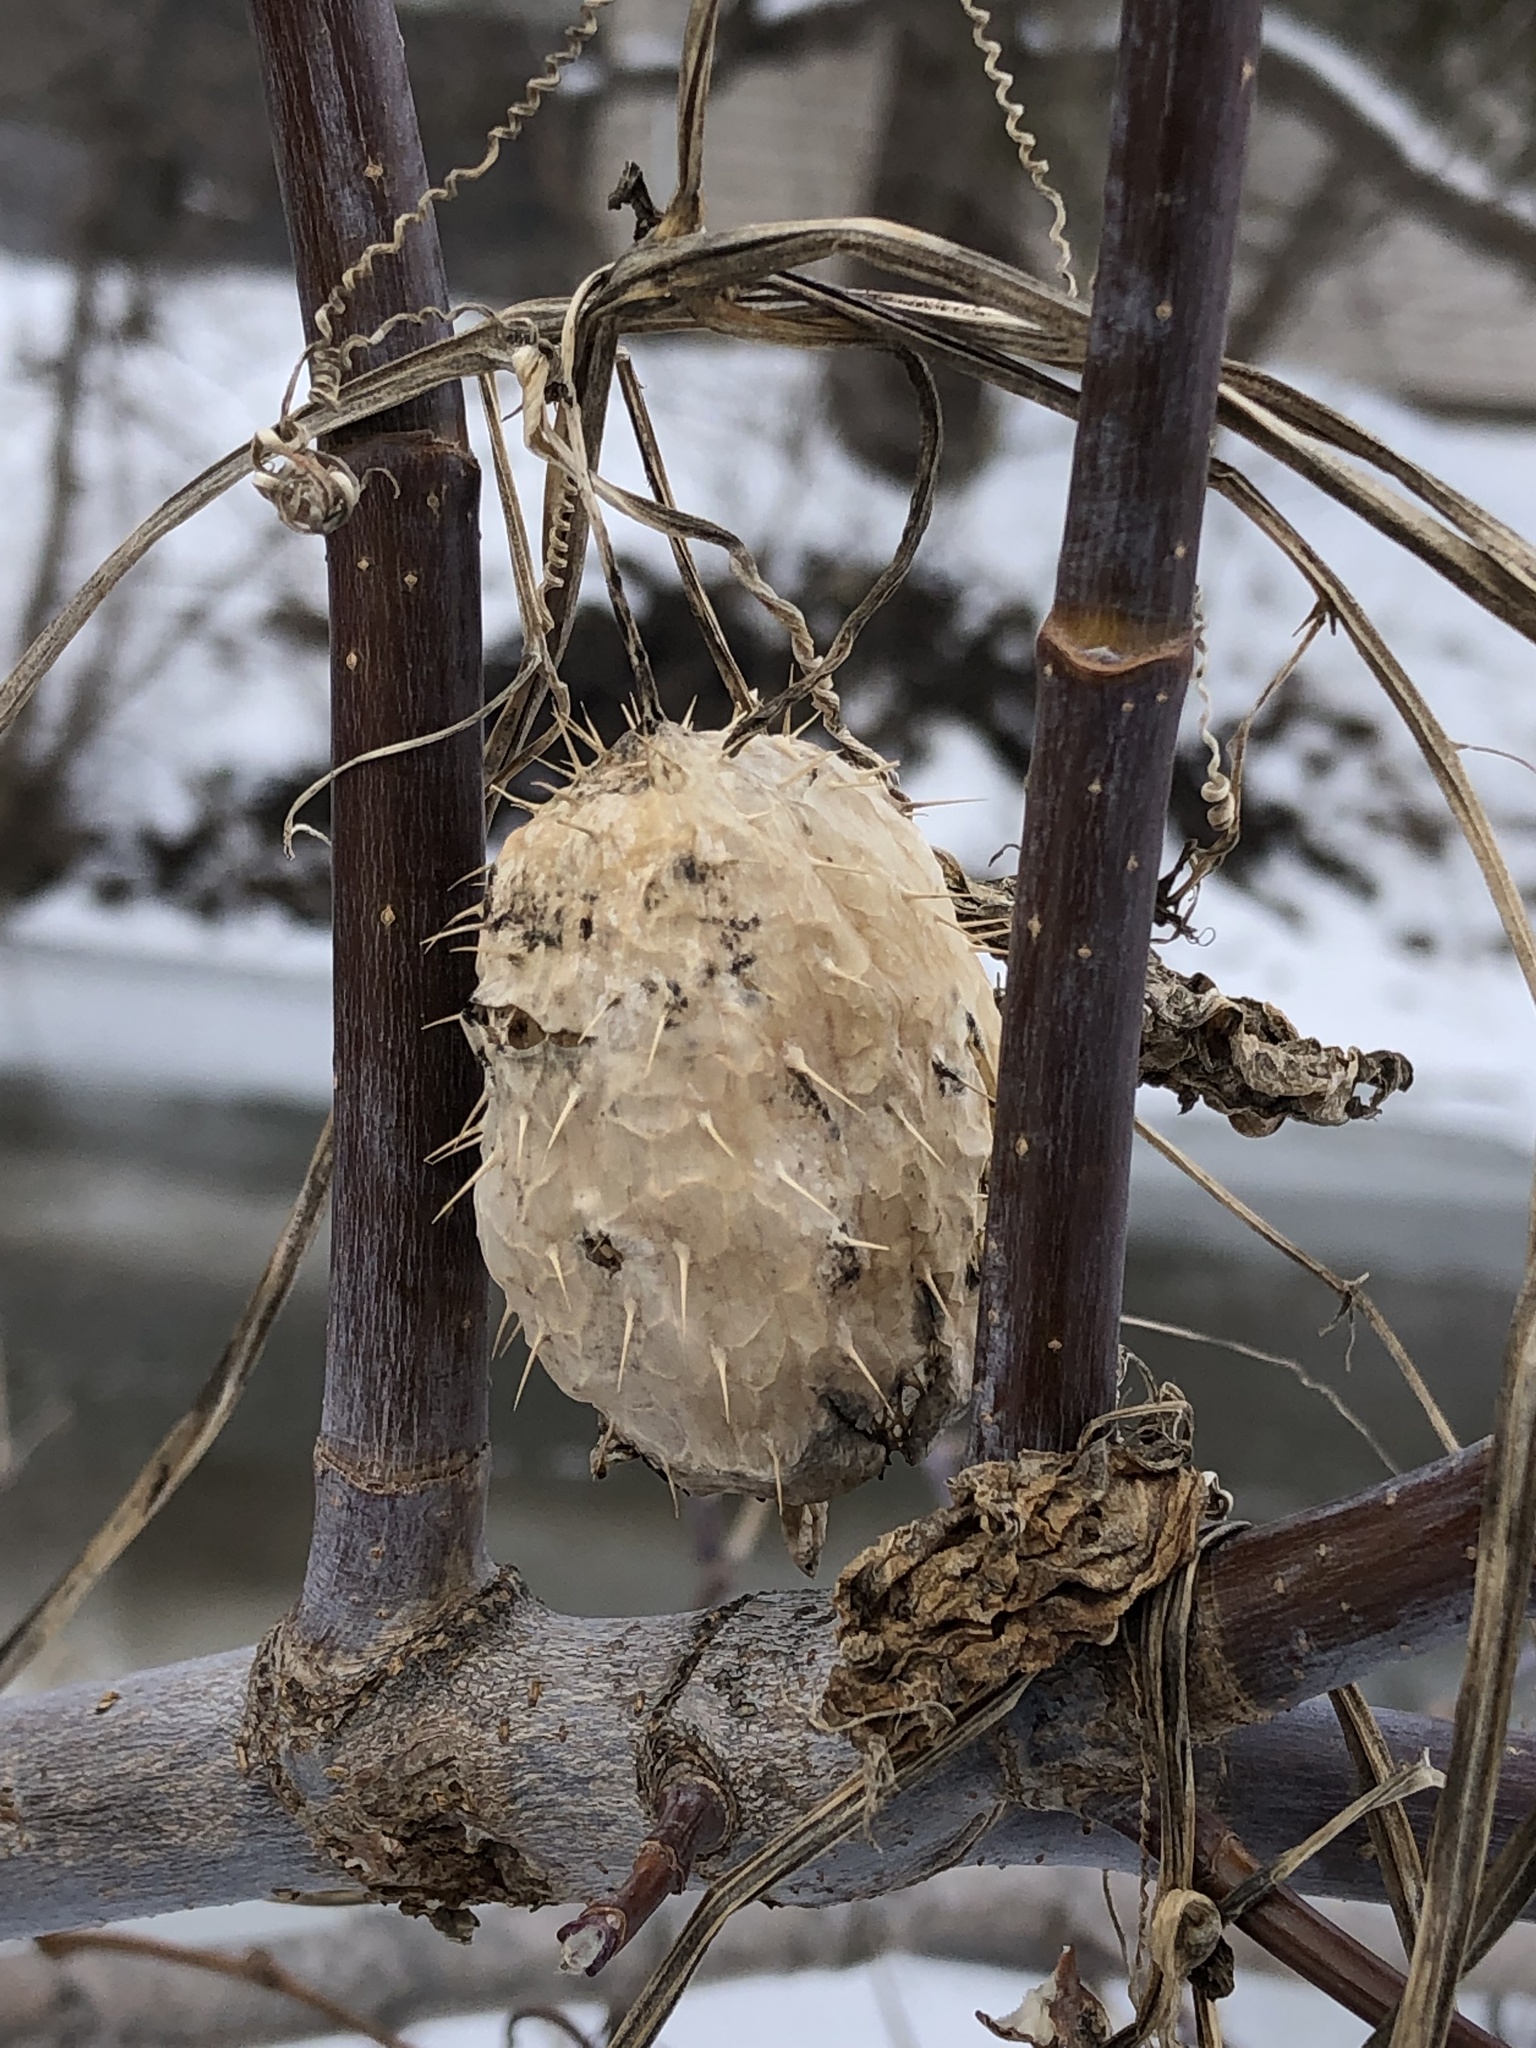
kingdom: Plantae
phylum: Tracheophyta
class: Magnoliopsida
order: Cucurbitales
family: Cucurbitaceae
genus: Echinocystis
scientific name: Echinocystis lobata
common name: Wild cucumber
